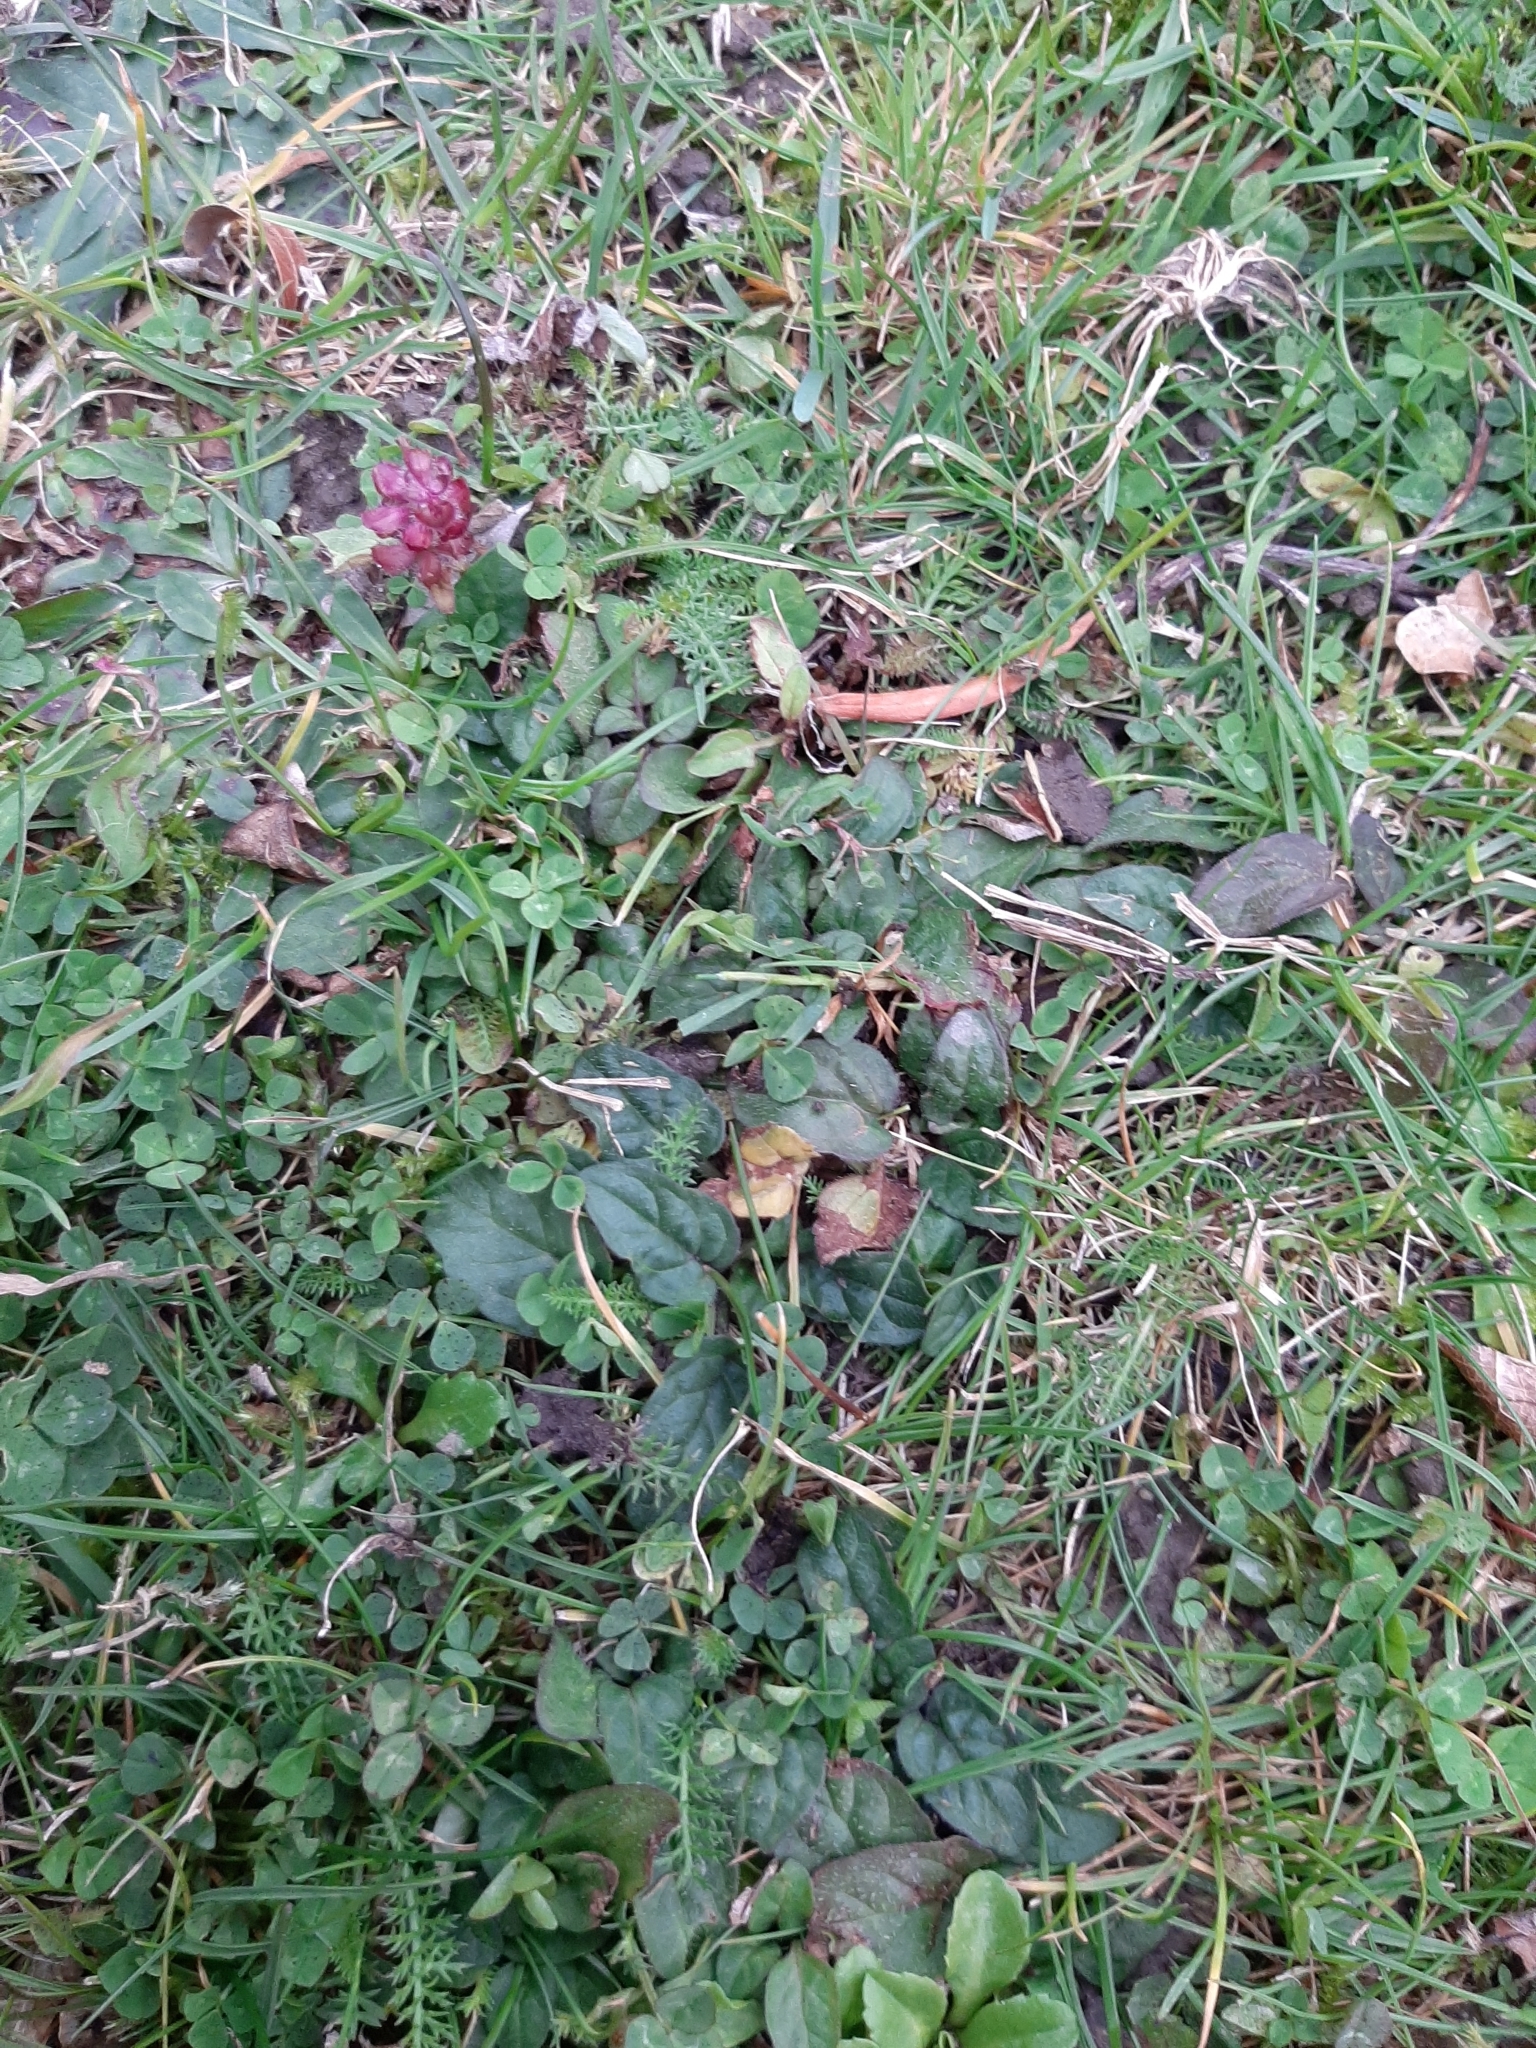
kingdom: Plantae
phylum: Tracheophyta
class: Magnoliopsida
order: Lamiales
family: Lamiaceae
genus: Prunella
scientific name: Prunella vulgaris
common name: Heal-all
